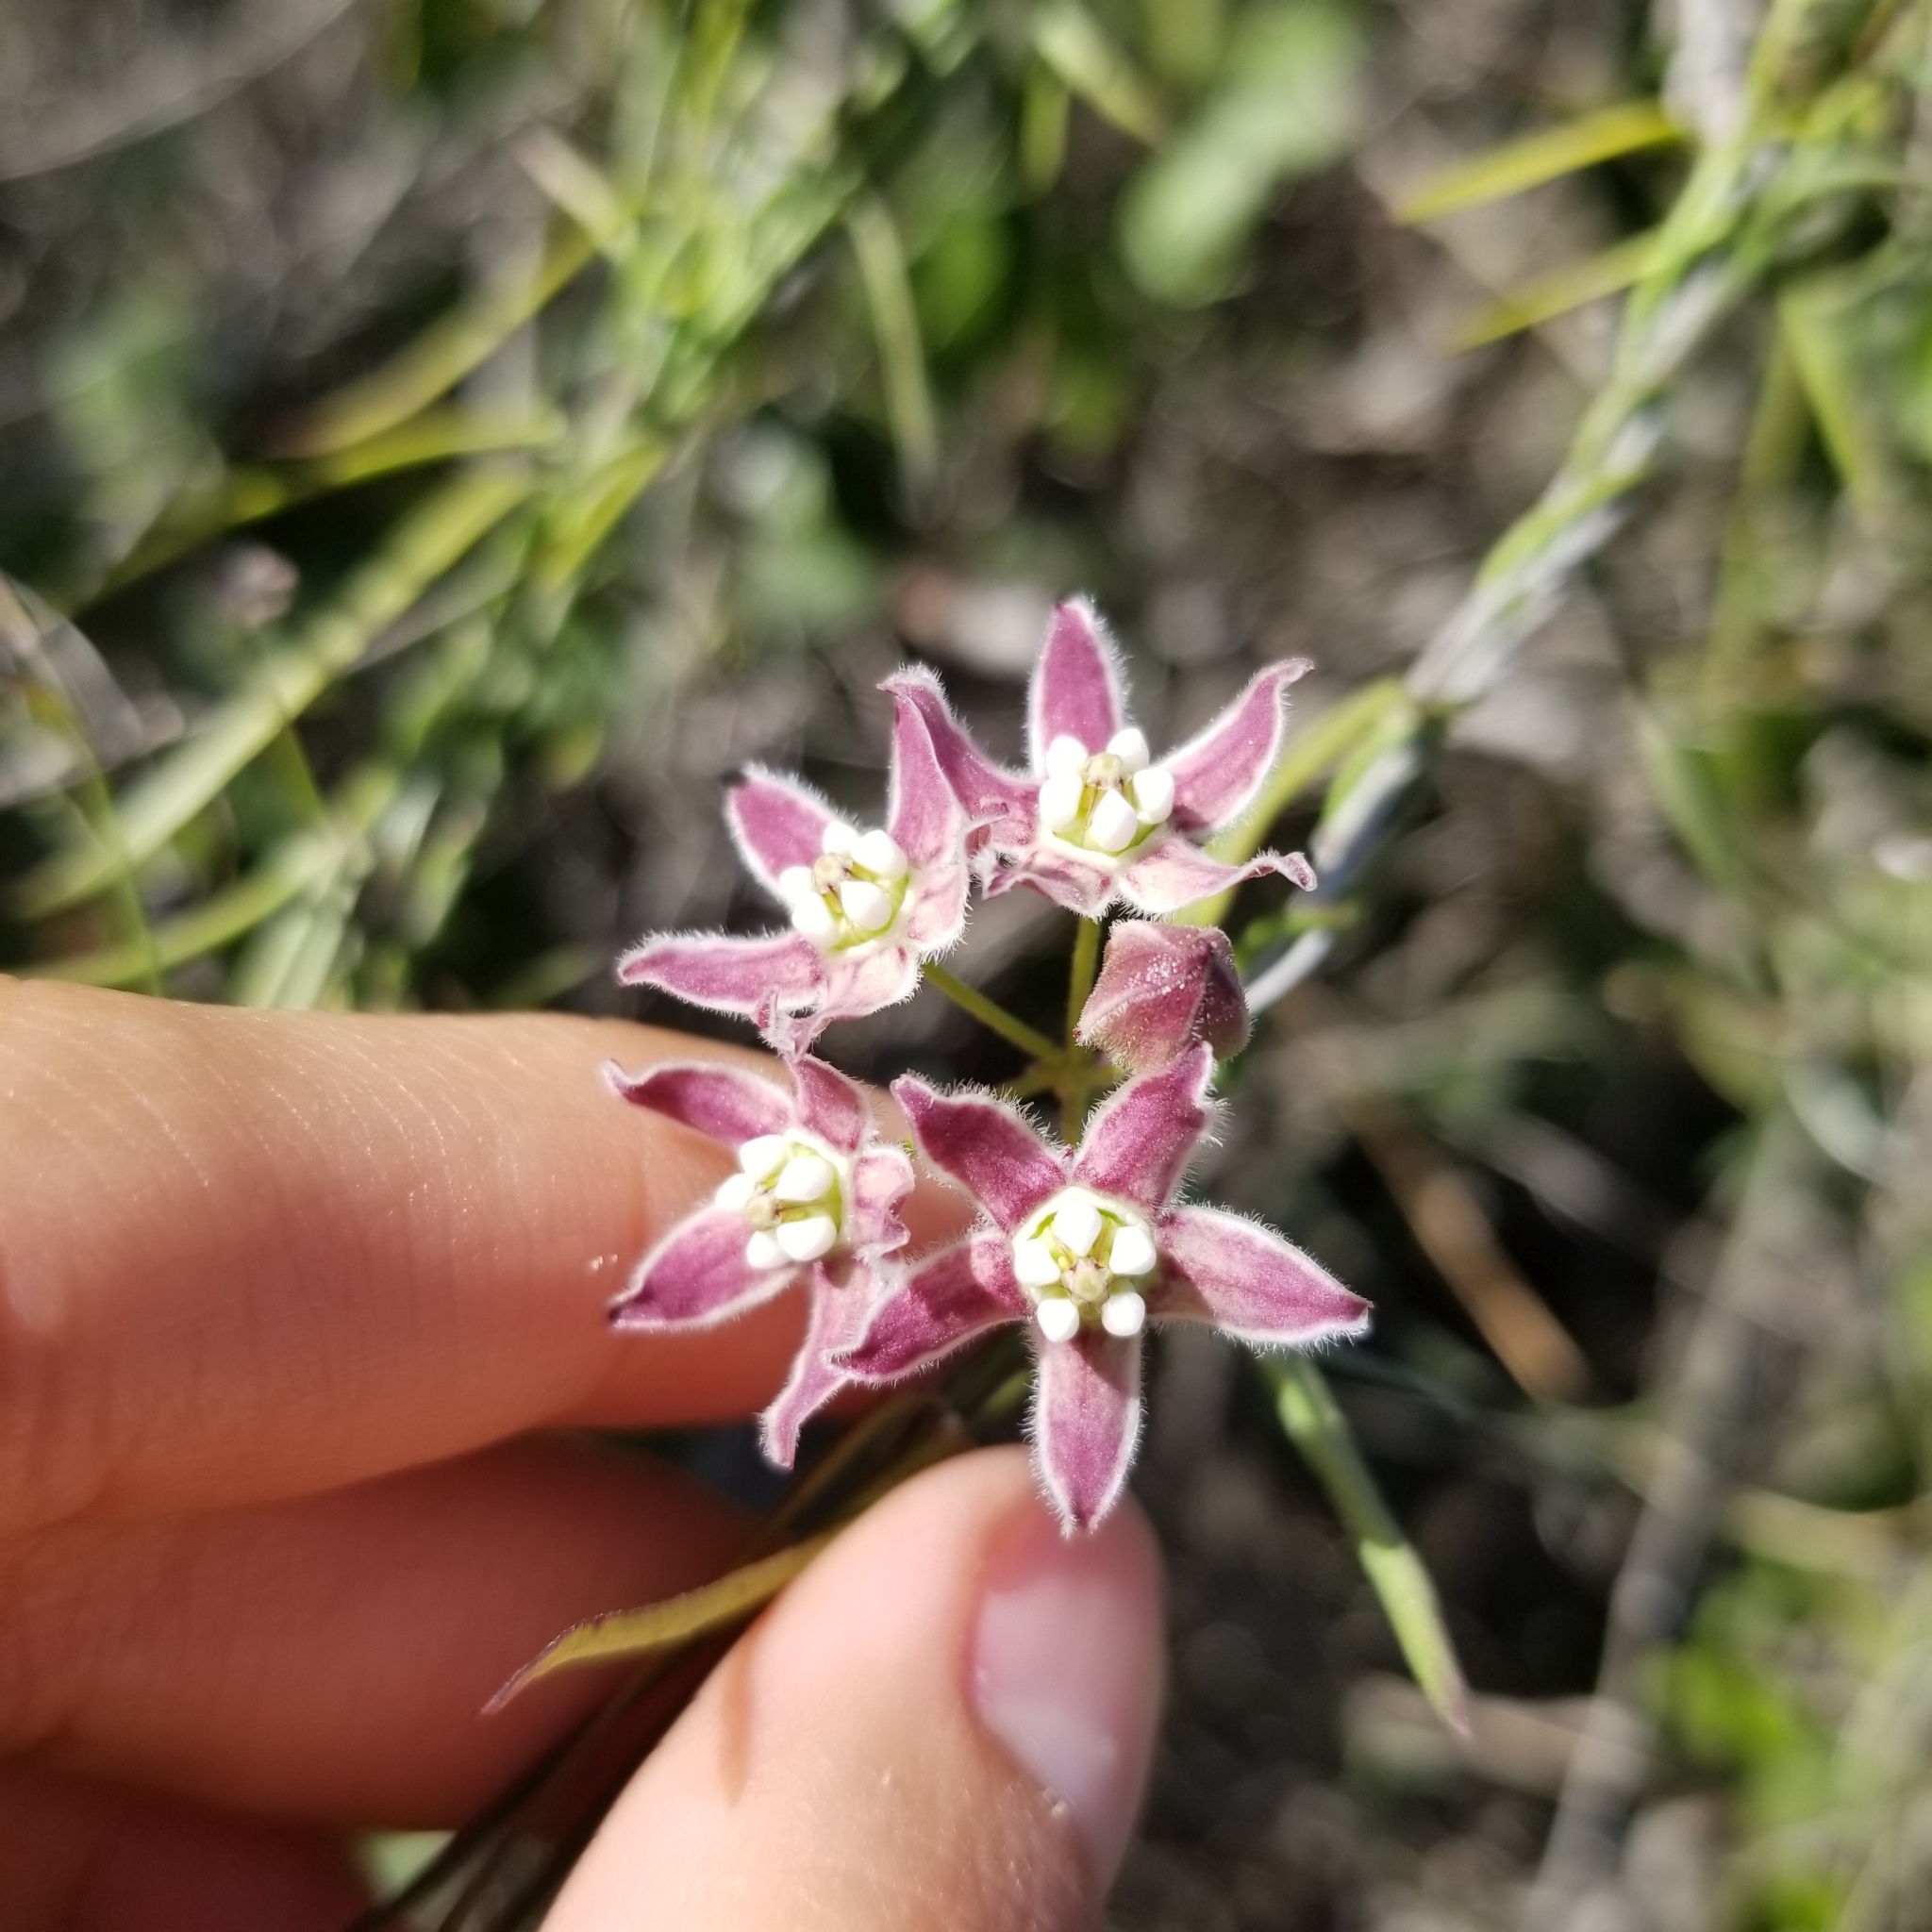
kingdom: Plantae
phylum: Tracheophyta
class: Magnoliopsida
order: Gentianales
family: Apocynaceae
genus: Funastrum
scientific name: Funastrum heterophyllum
